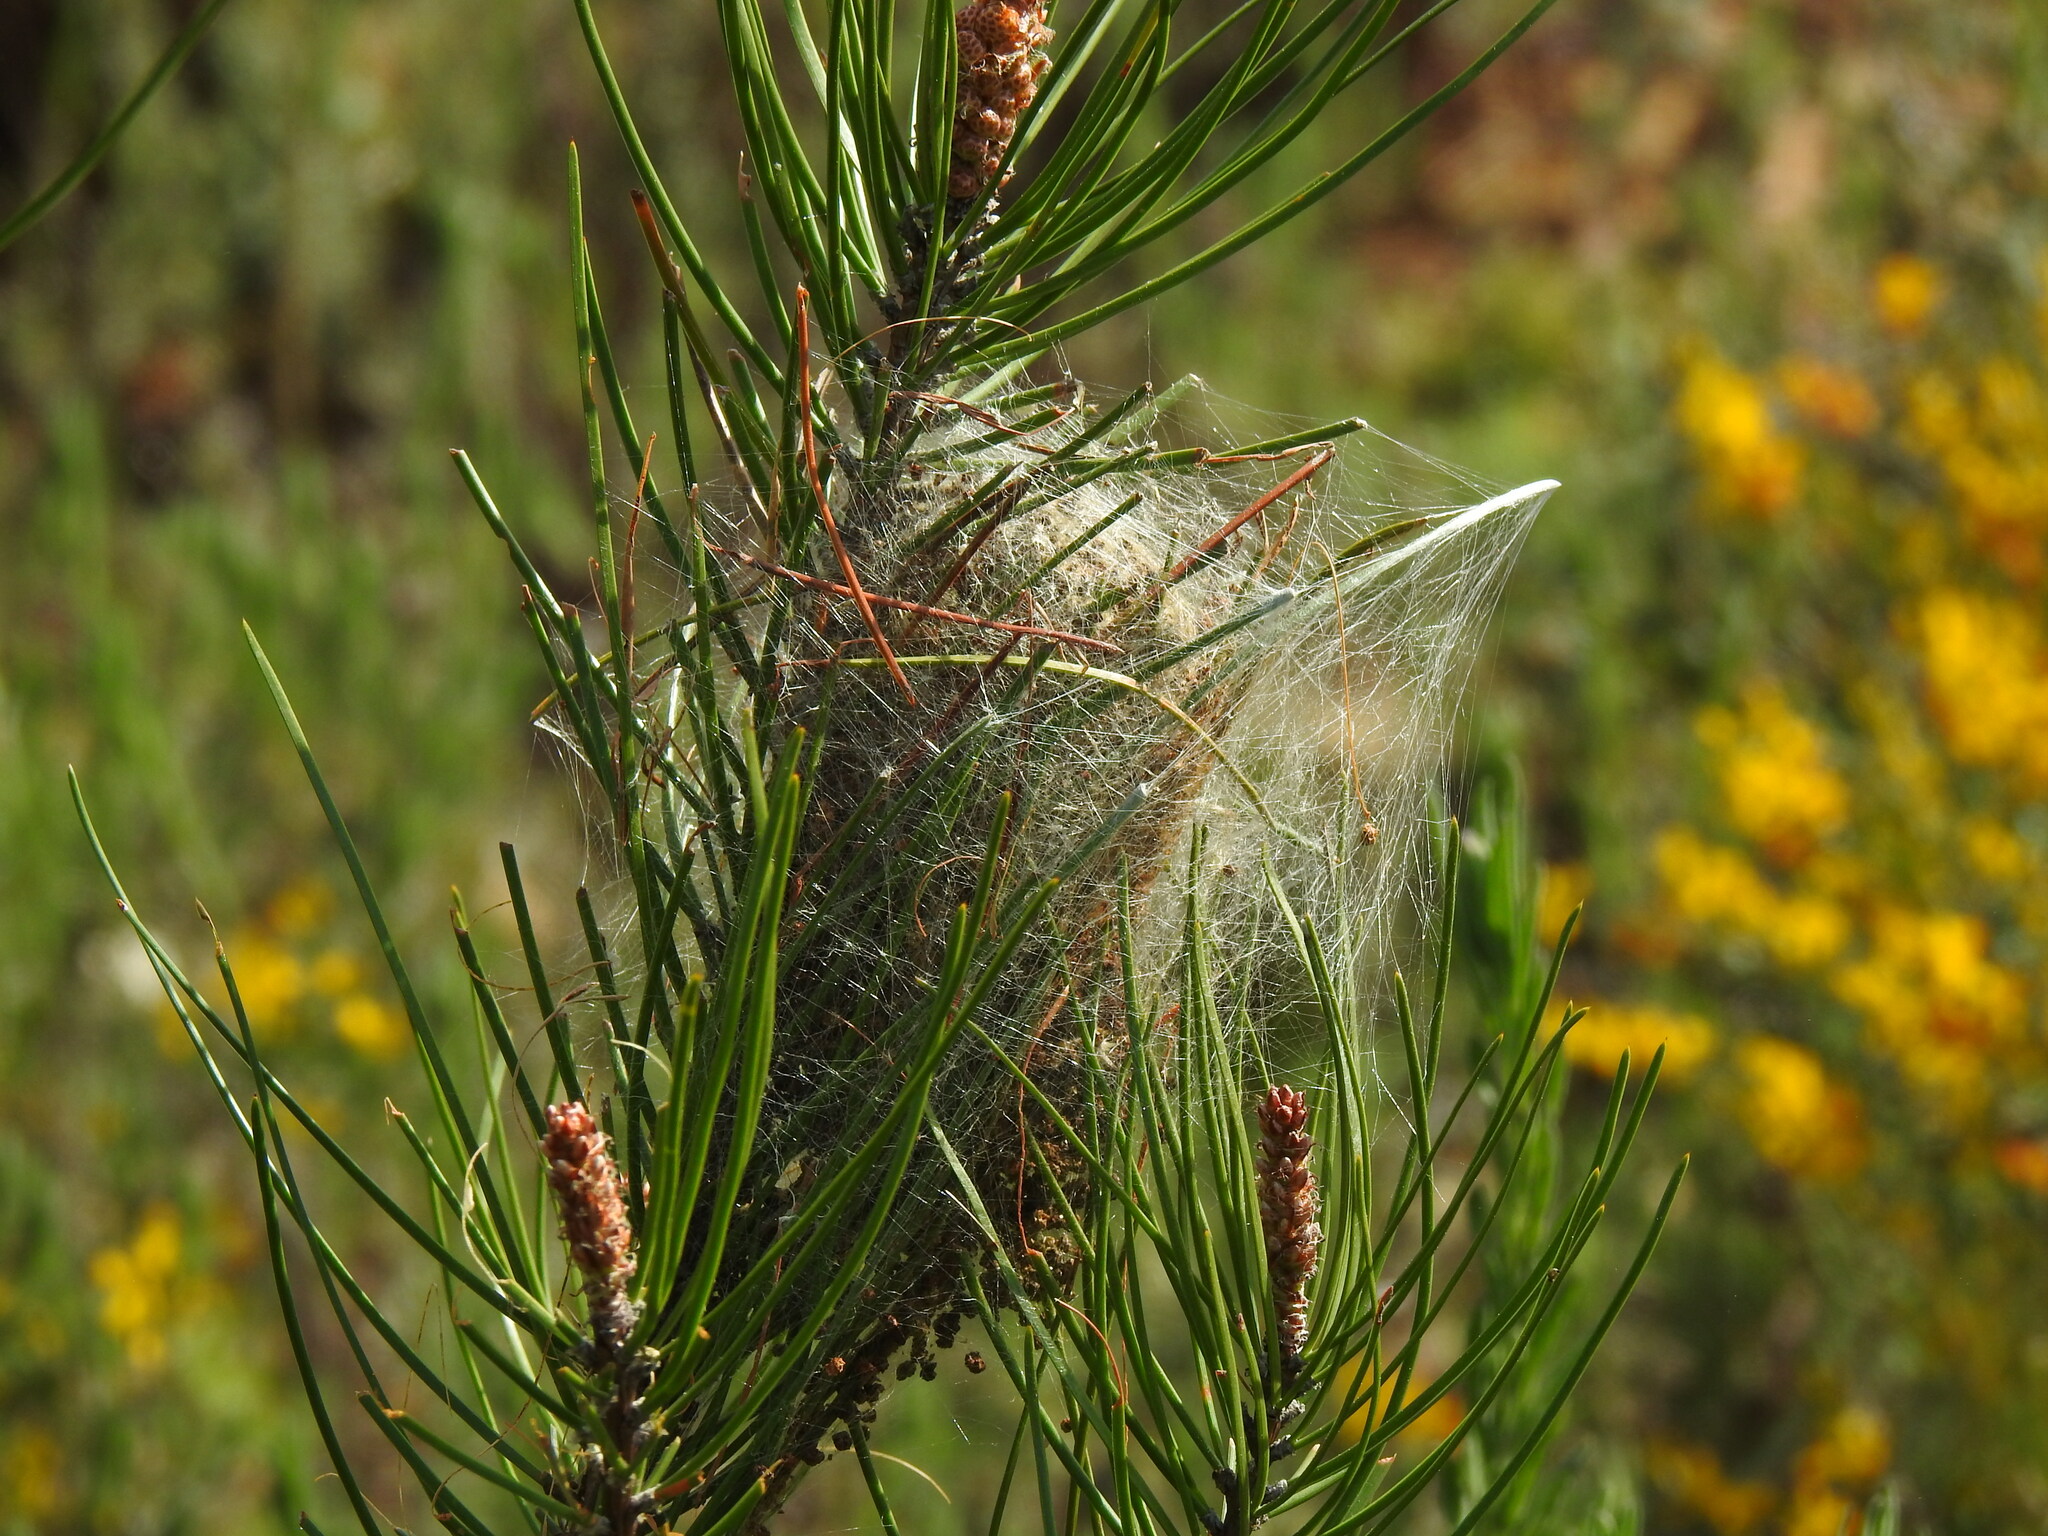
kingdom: Animalia
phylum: Arthropoda
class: Insecta
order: Lepidoptera
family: Notodontidae
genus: Thaumetopoea
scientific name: Thaumetopoea pityocampa
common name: Pine processionary
